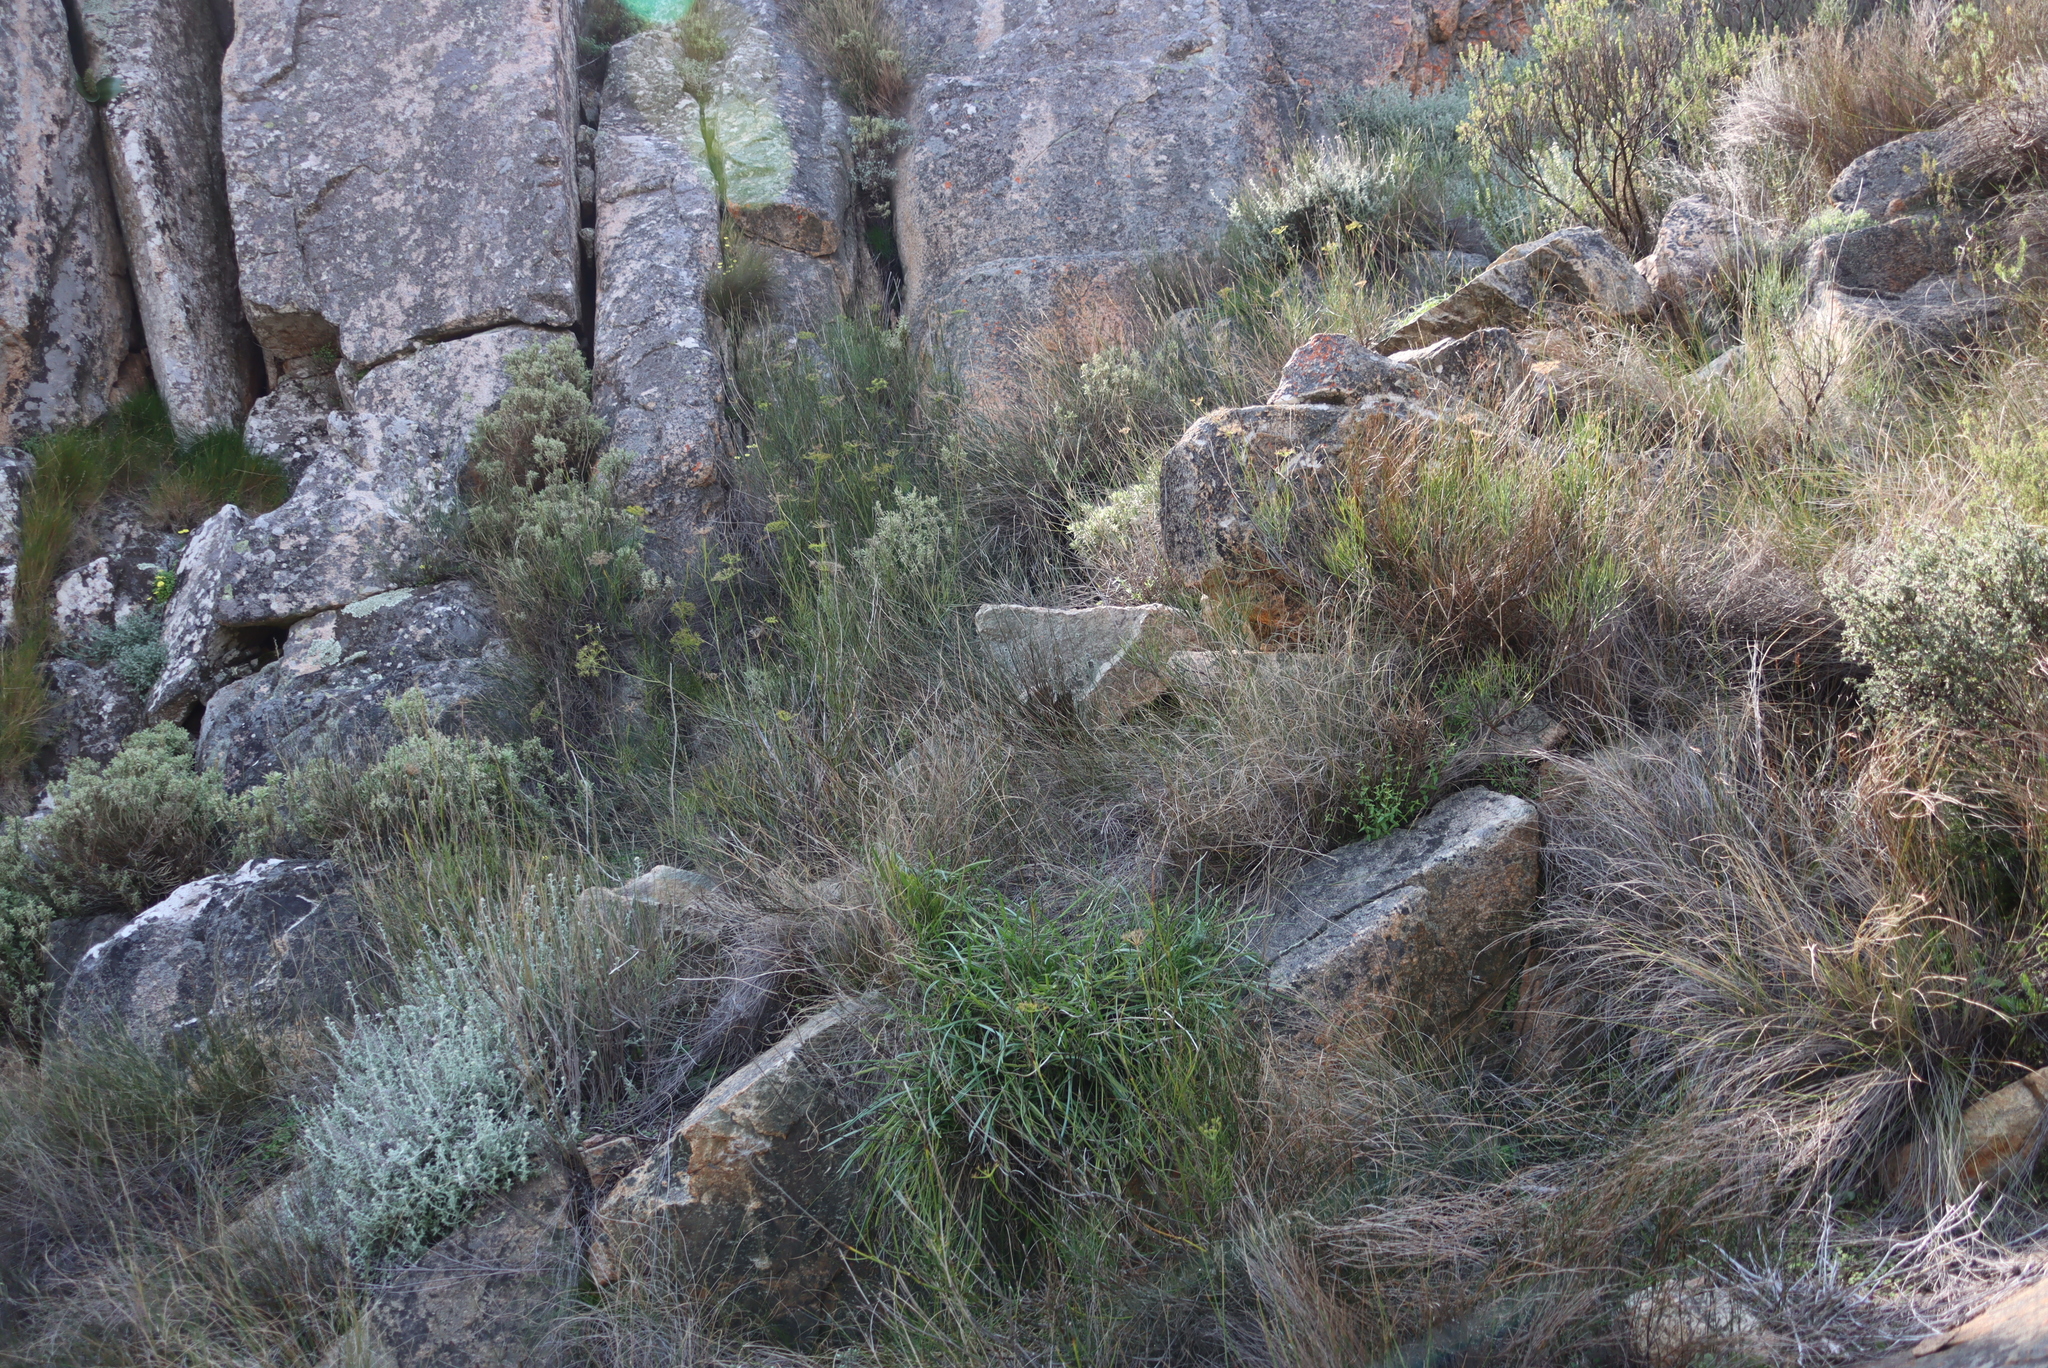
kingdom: Plantae
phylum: Tracheophyta
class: Magnoliopsida
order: Apiales
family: Apiaceae
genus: Notobubon
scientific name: Notobubon capense
